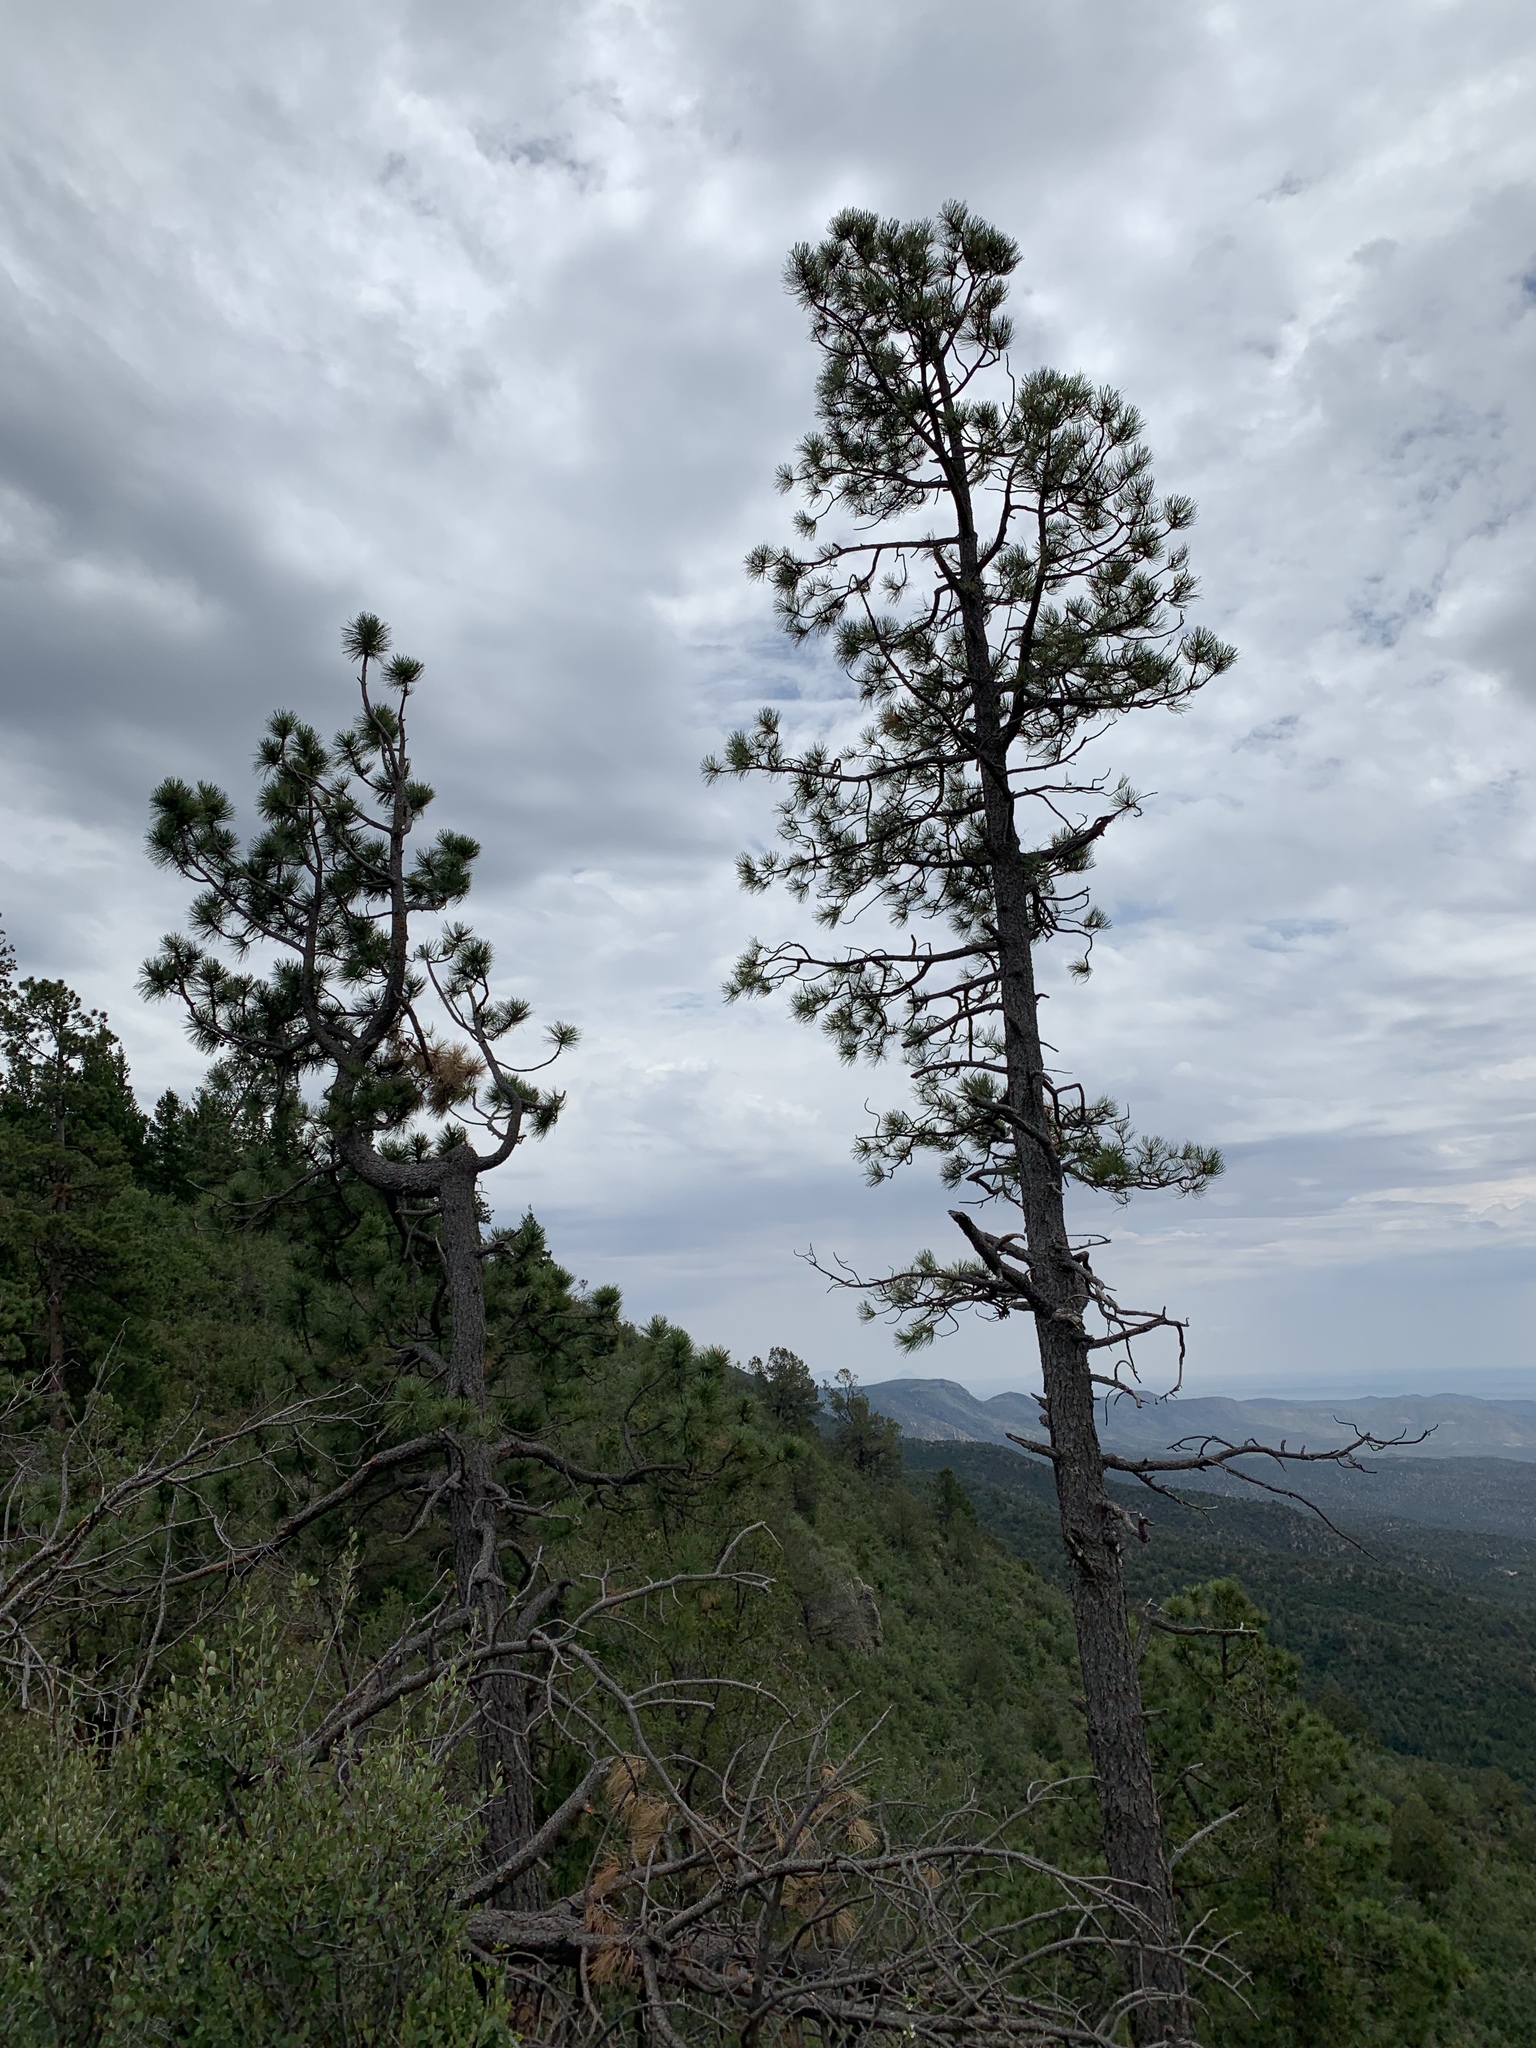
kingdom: Plantae
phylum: Tracheophyta
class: Pinopsida
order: Pinales
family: Pinaceae
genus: Pinus
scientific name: Pinus ponderosa
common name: Western yellow-pine
